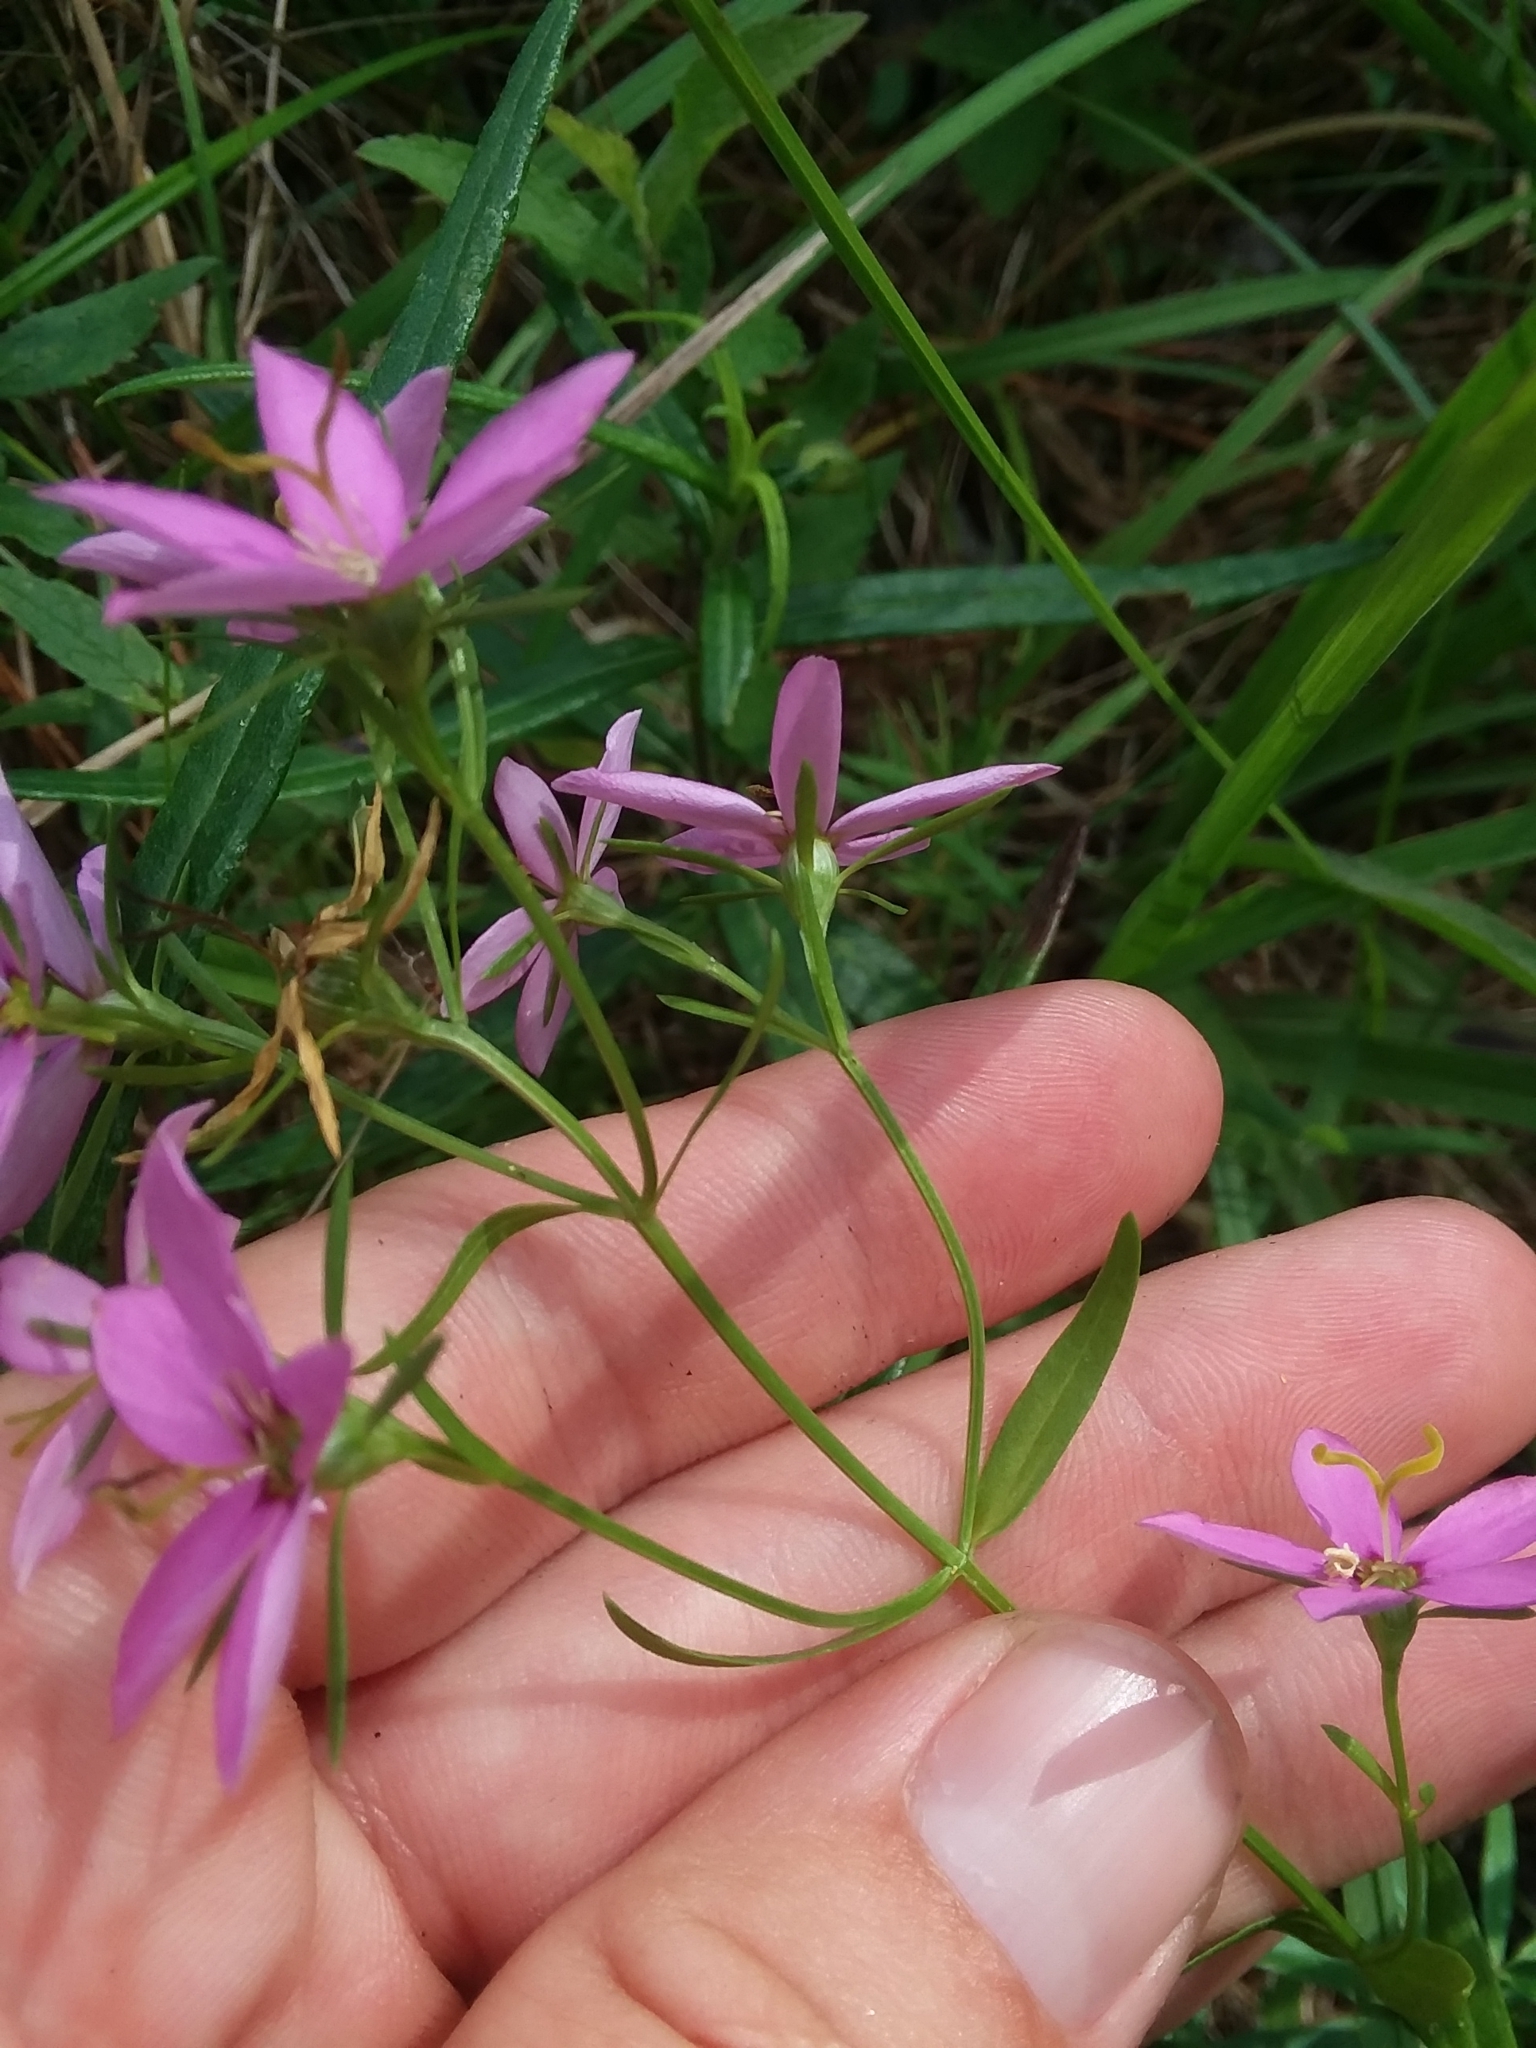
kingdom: Plantae
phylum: Tracheophyta
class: Magnoliopsida
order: Gentianales
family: Gentianaceae
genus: Sabatia
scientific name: Sabatia brachiata
